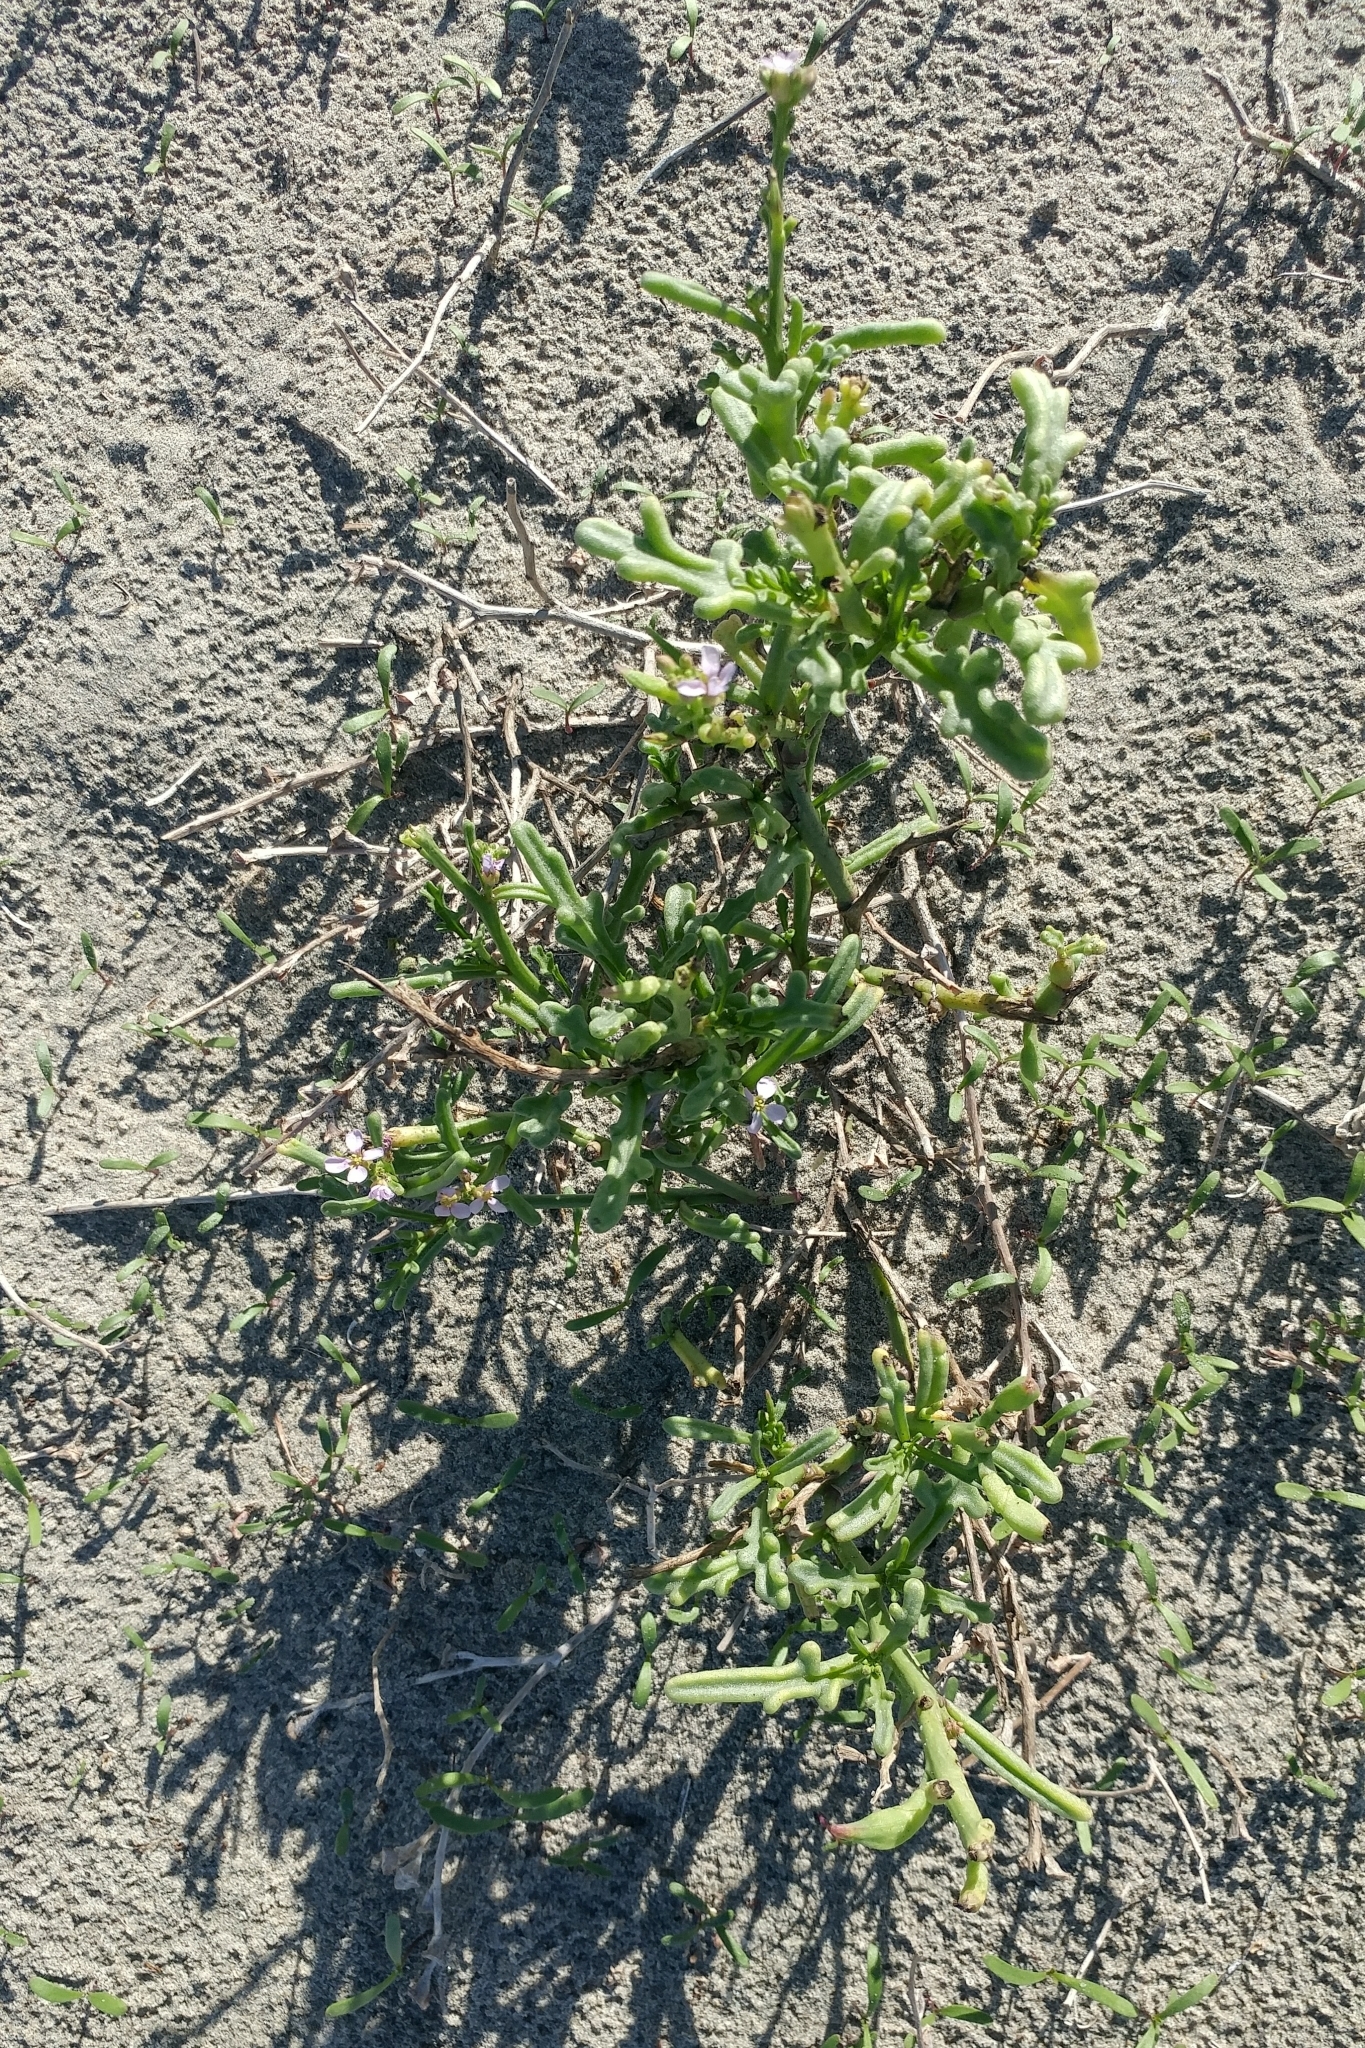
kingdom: Plantae
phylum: Tracheophyta
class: Magnoliopsida
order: Brassicales
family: Brassicaceae
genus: Cakile
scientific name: Cakile maritima
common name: Sea rocket
